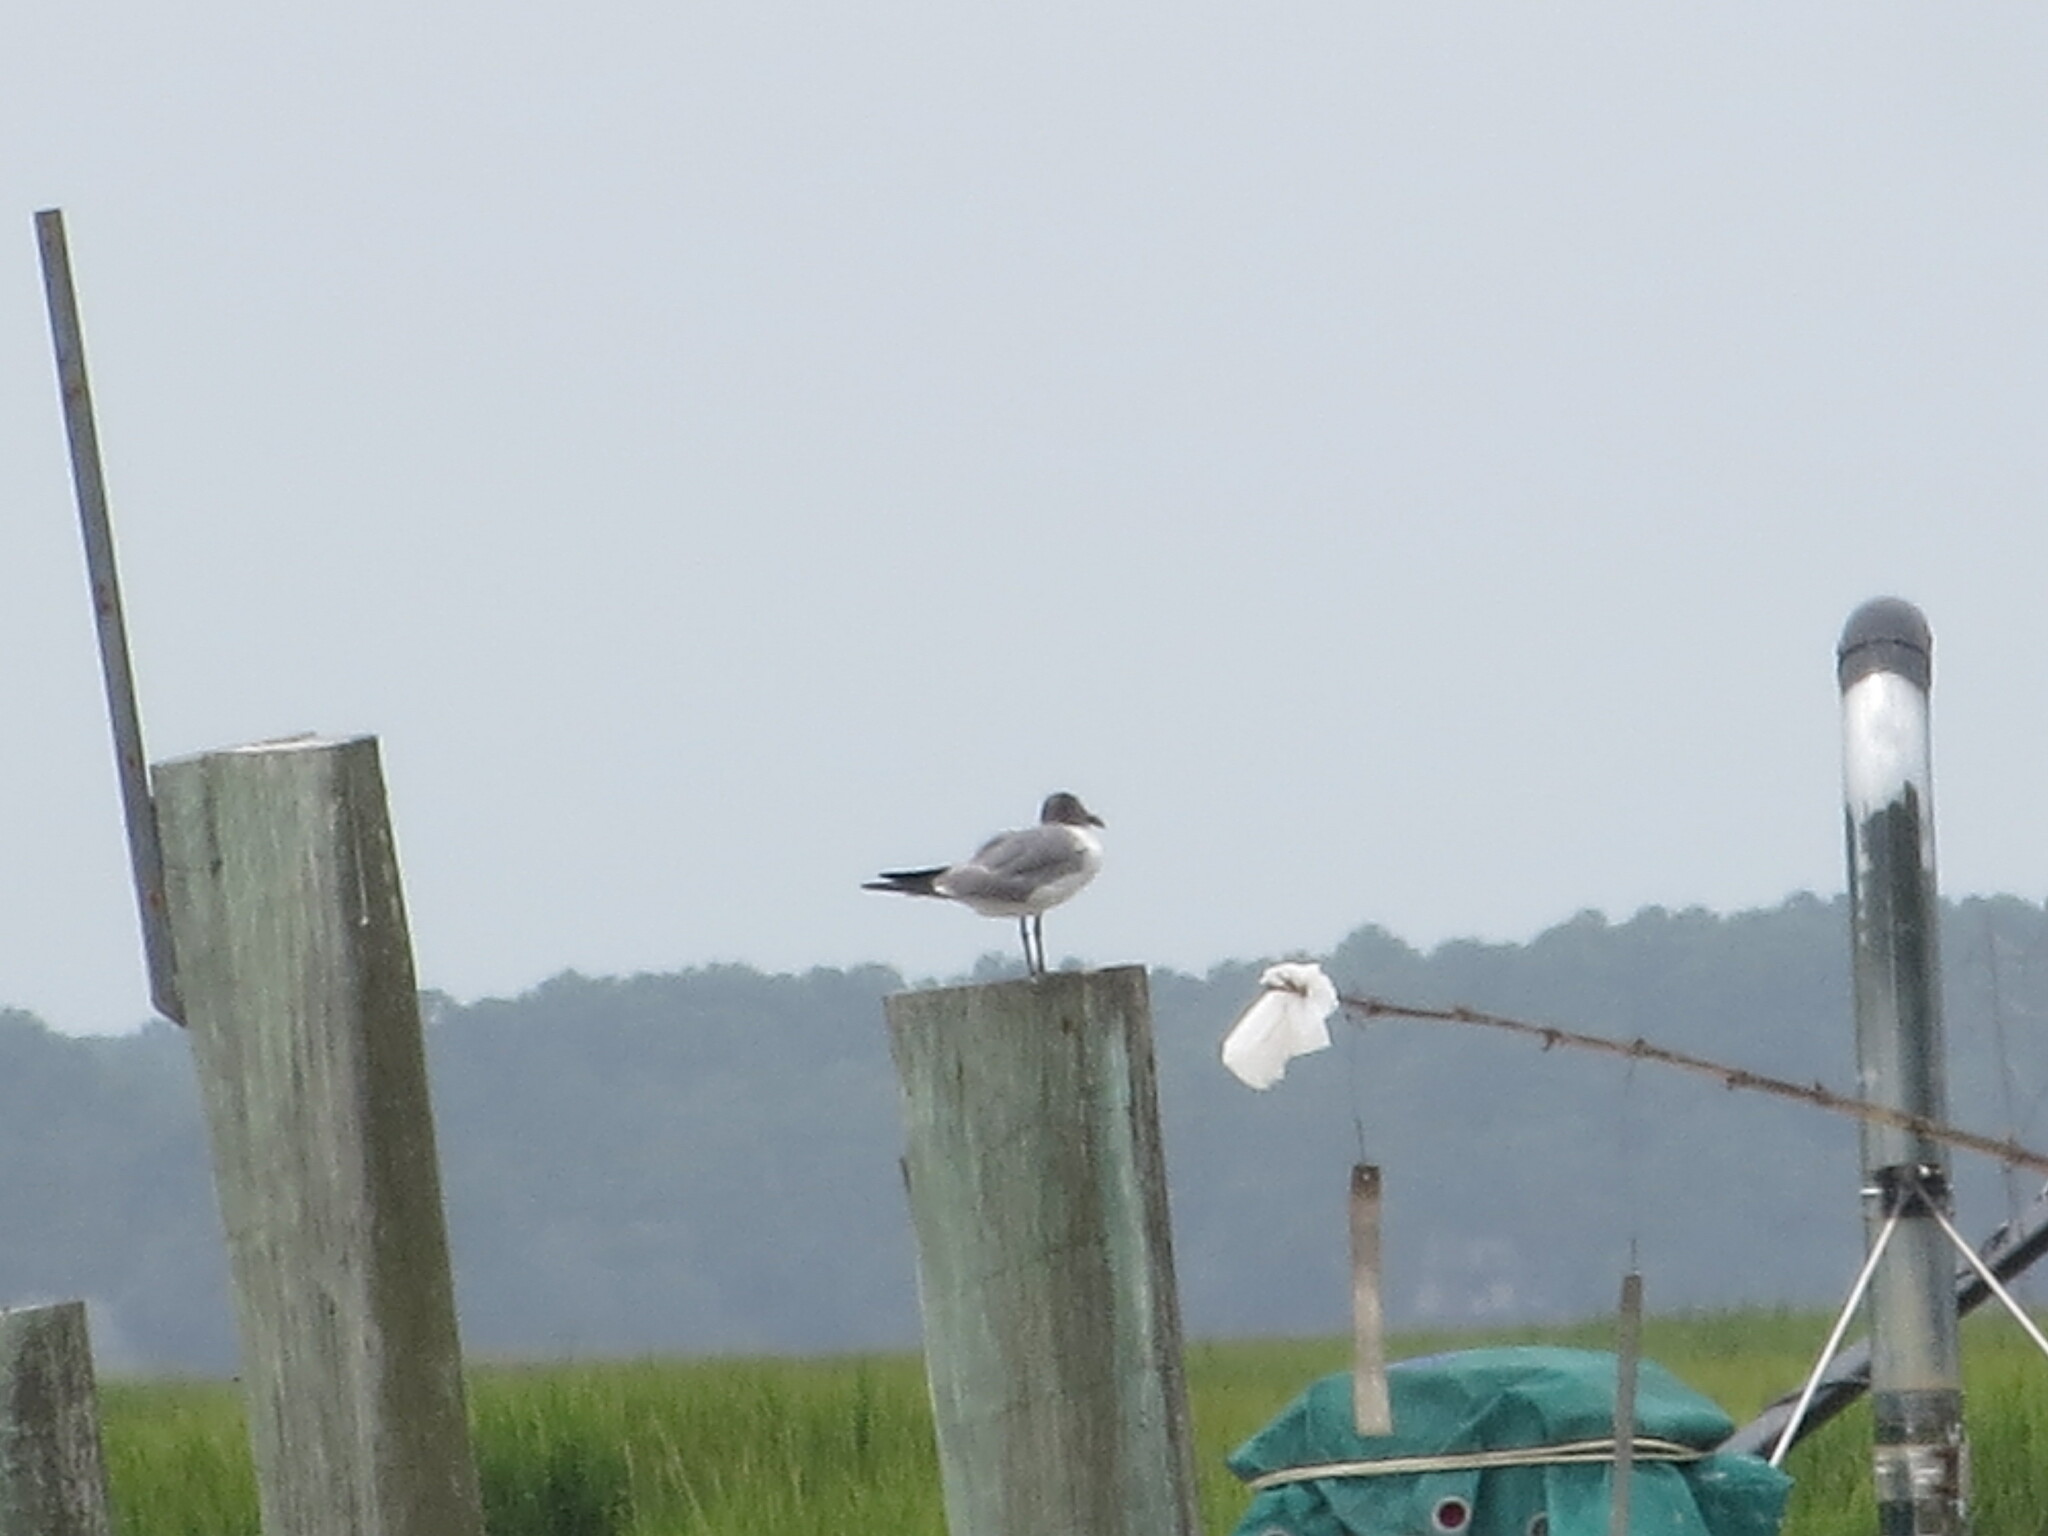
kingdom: Animalia
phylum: Chordata
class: Aves
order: Charadriiformes
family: Laridae
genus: Leucophaeus
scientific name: Leucophaeus atricilla
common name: Laughing gull
